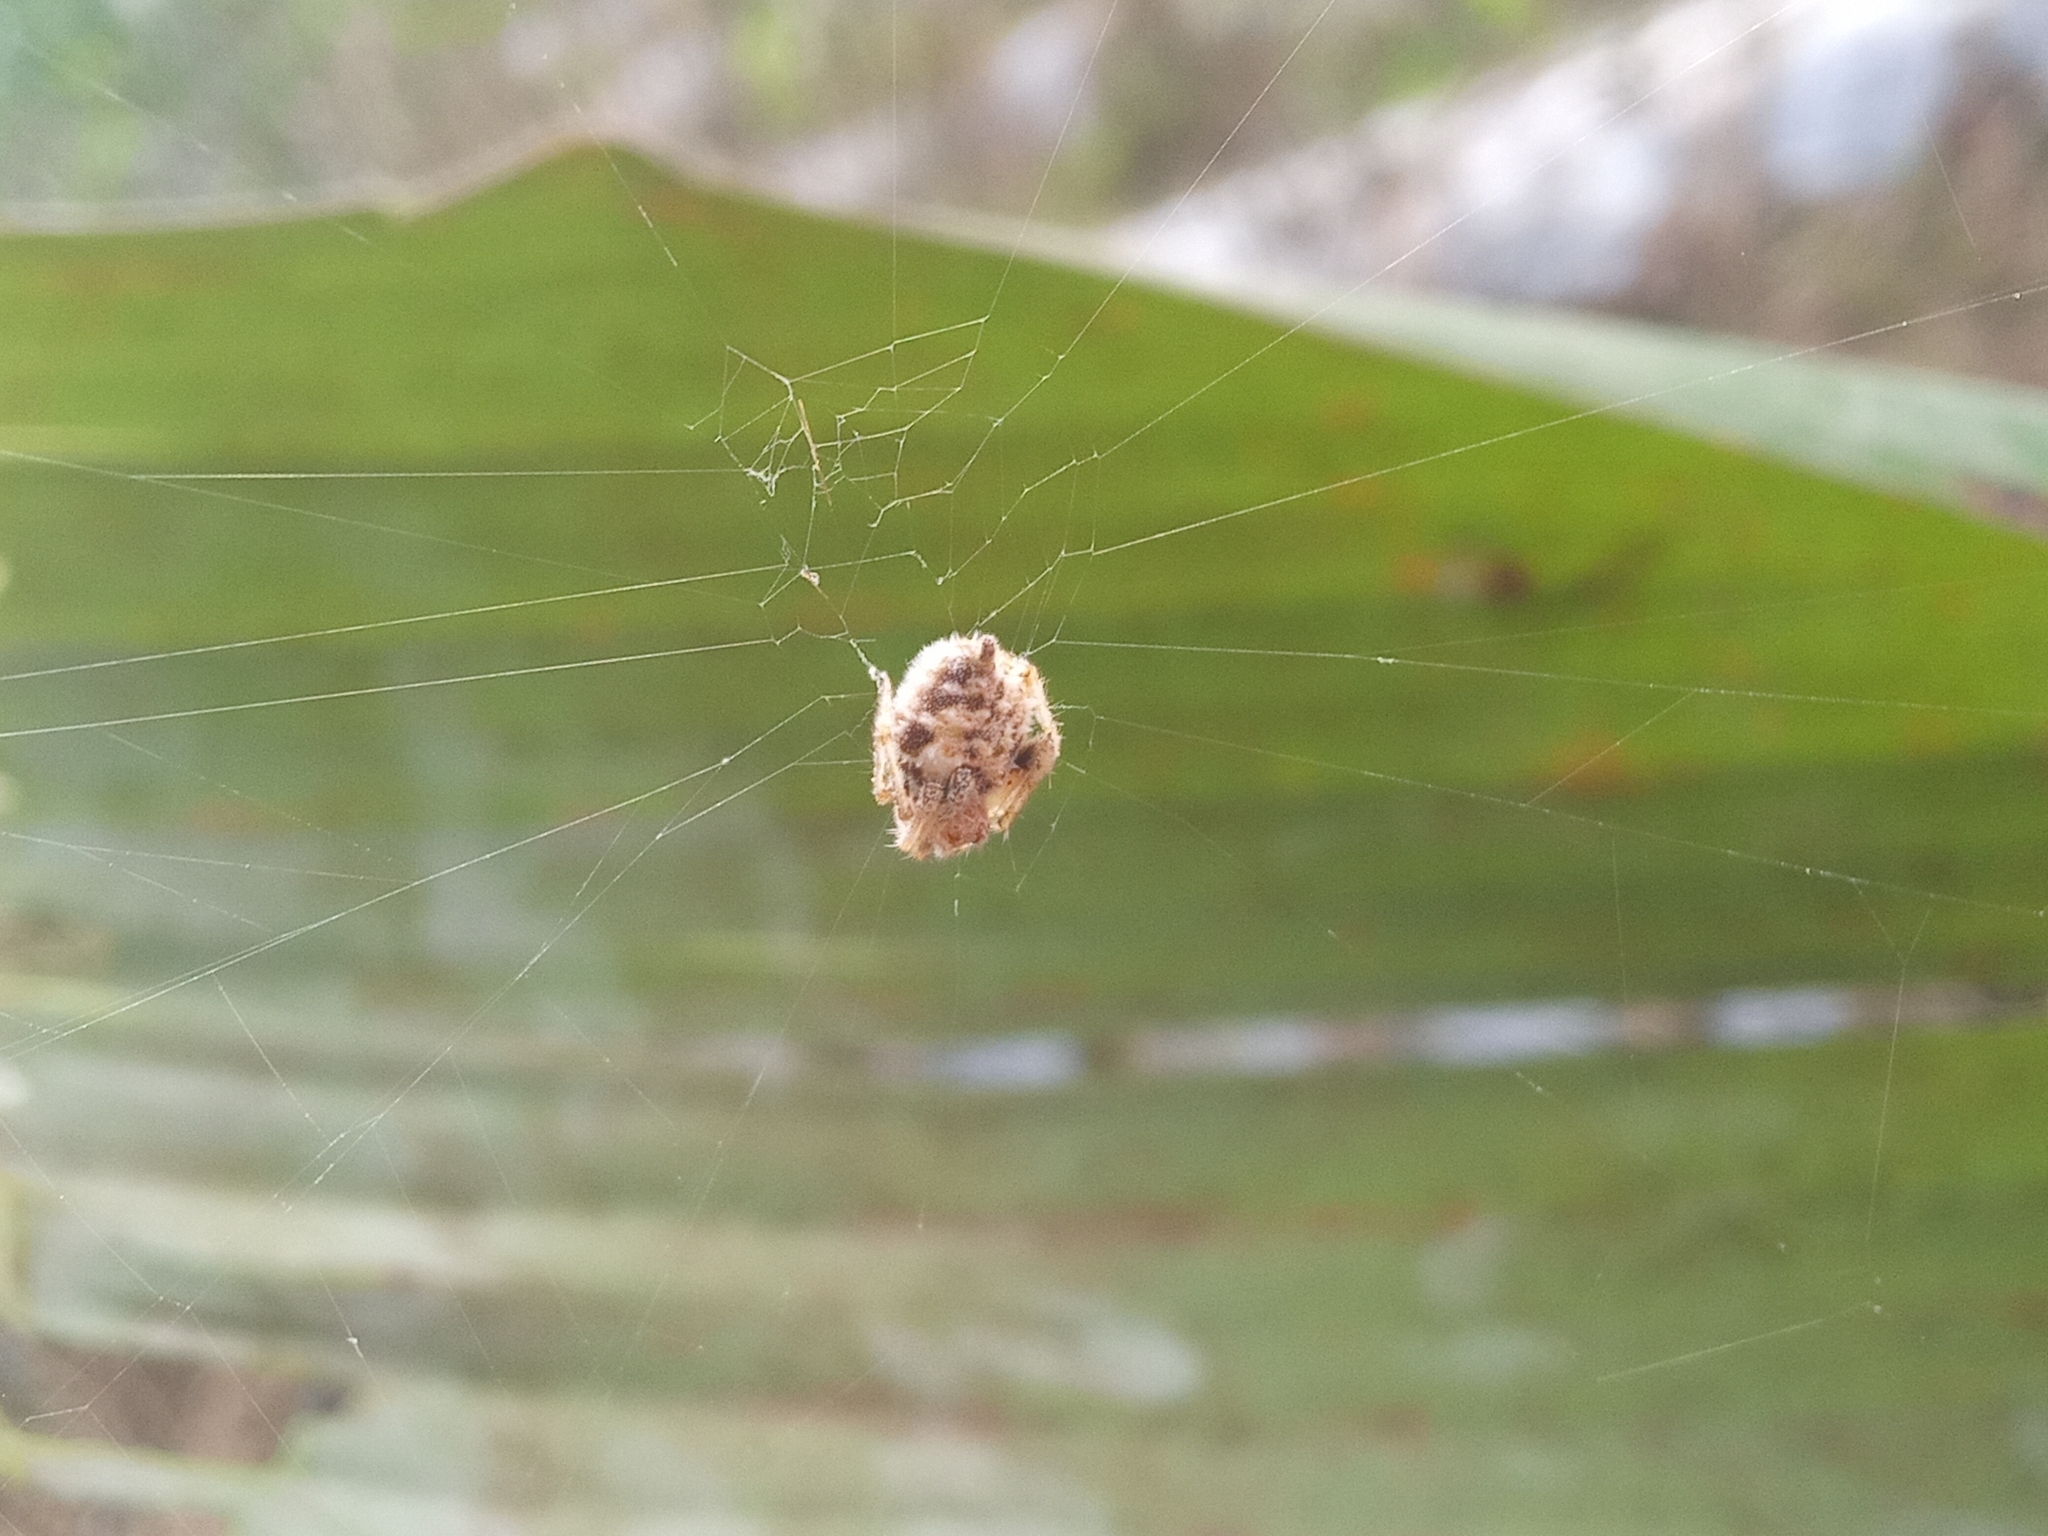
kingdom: Animalia
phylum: Arthropoda
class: Arachnida
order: Araneae
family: Araneidae
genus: Eriovixia
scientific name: Eriovixia laglaizei
